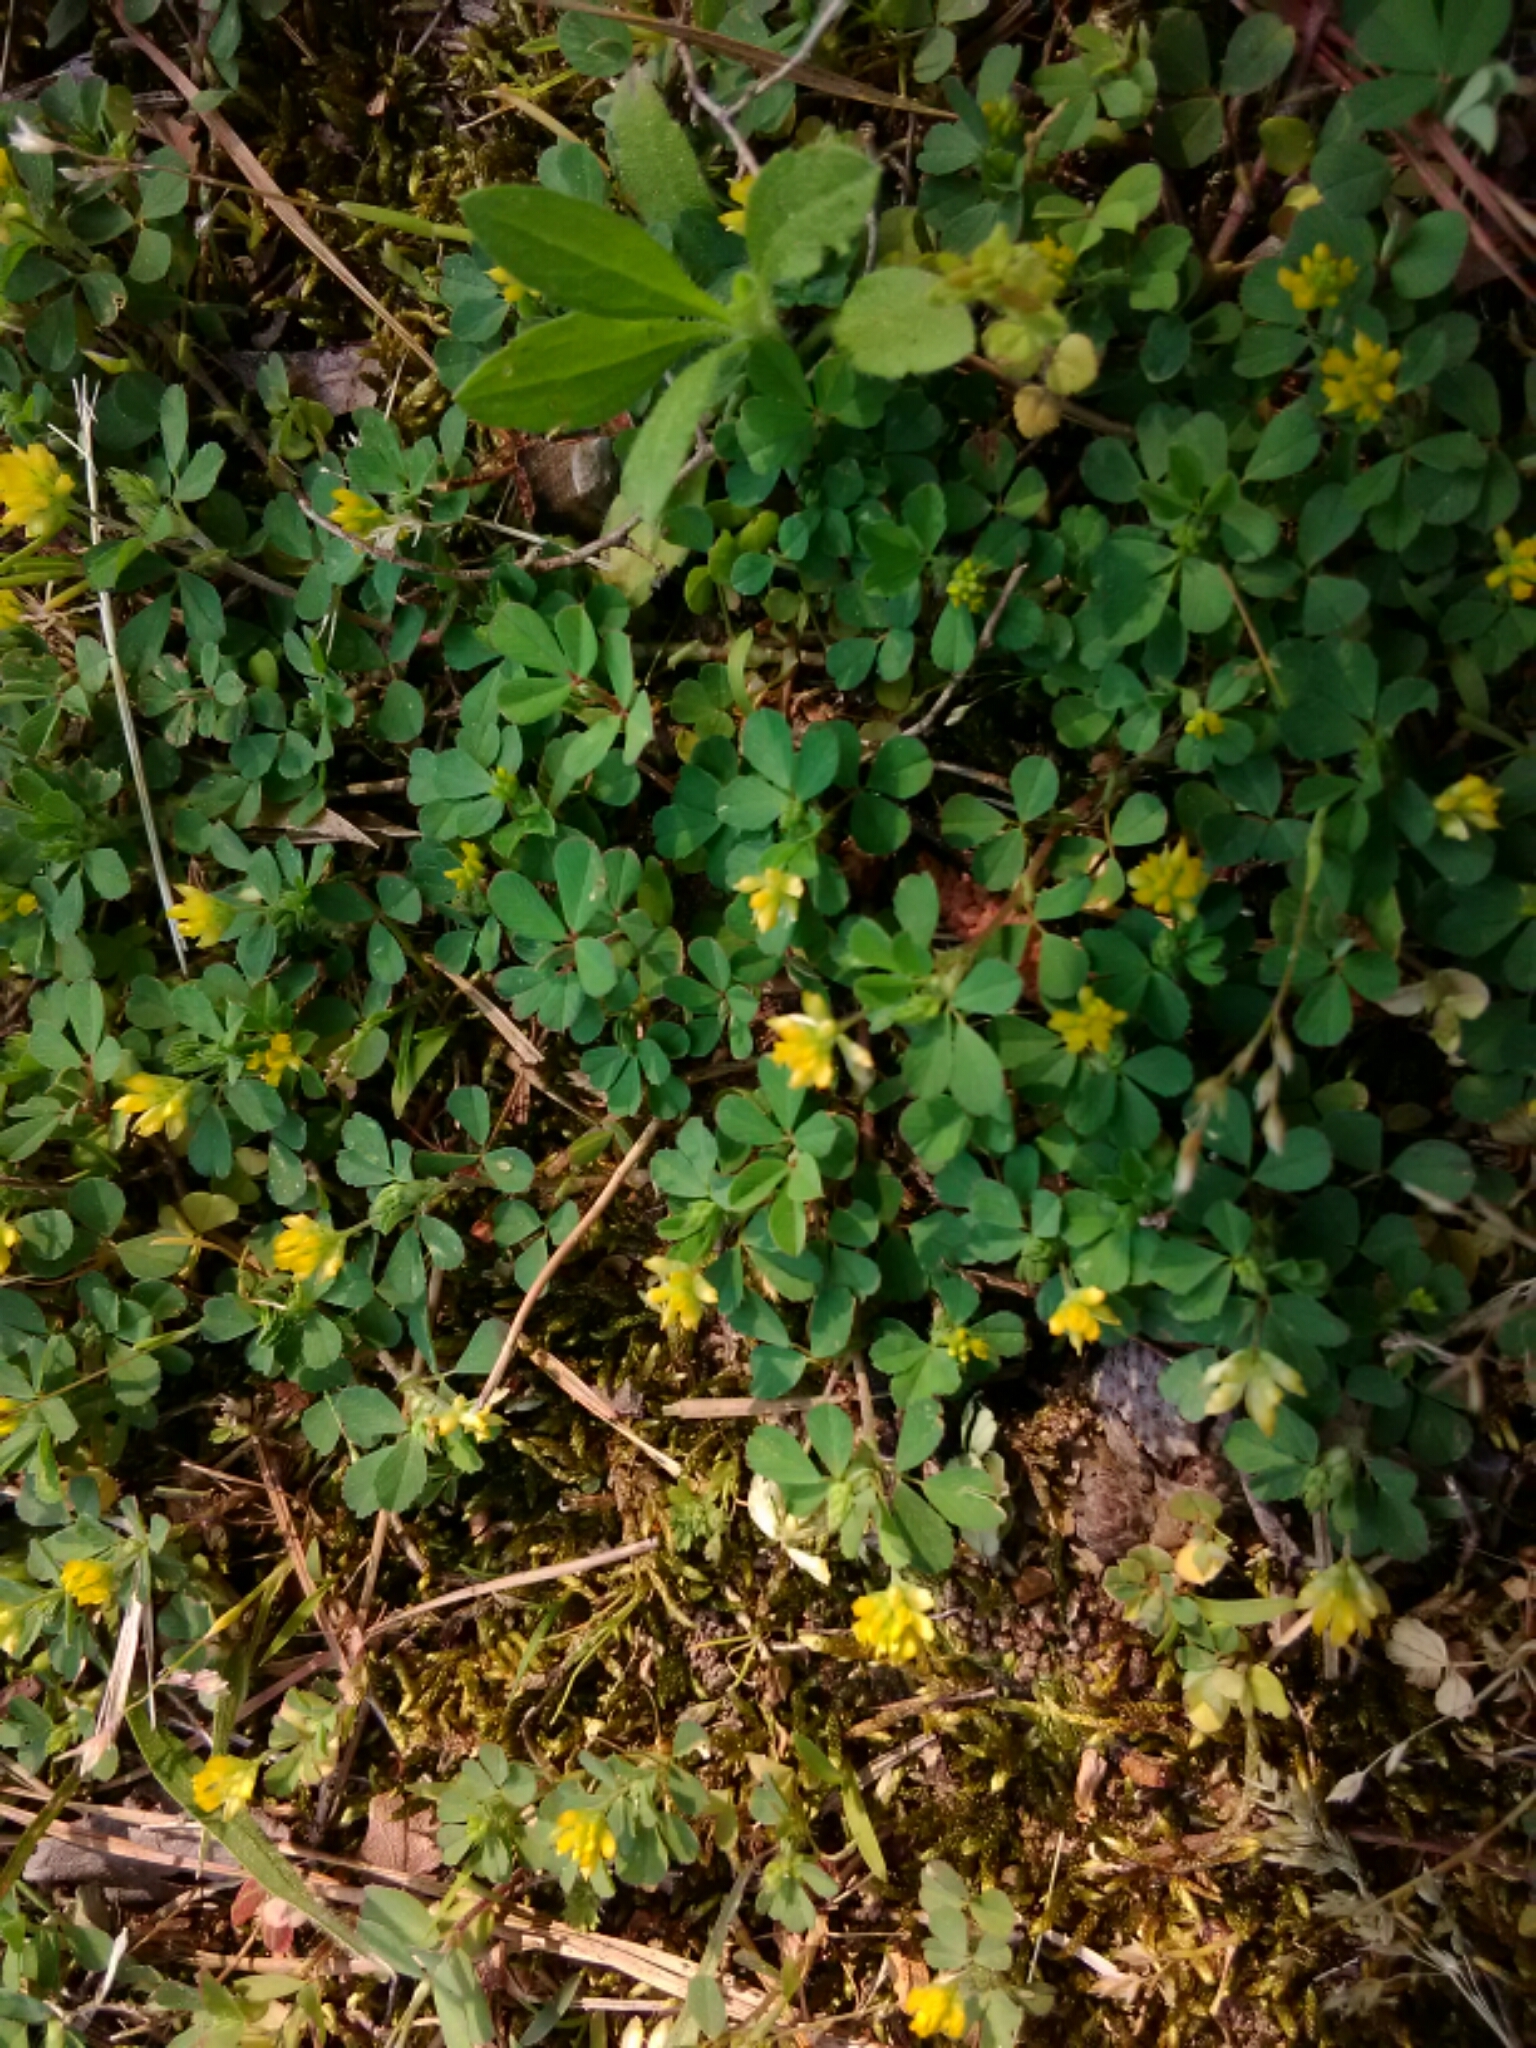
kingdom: Plantae
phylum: Tracheophyta
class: Magnoliopsida
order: Fabales
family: Fabaceae
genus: Trifolium
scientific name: Trifolium dubium
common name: Suckling clover
